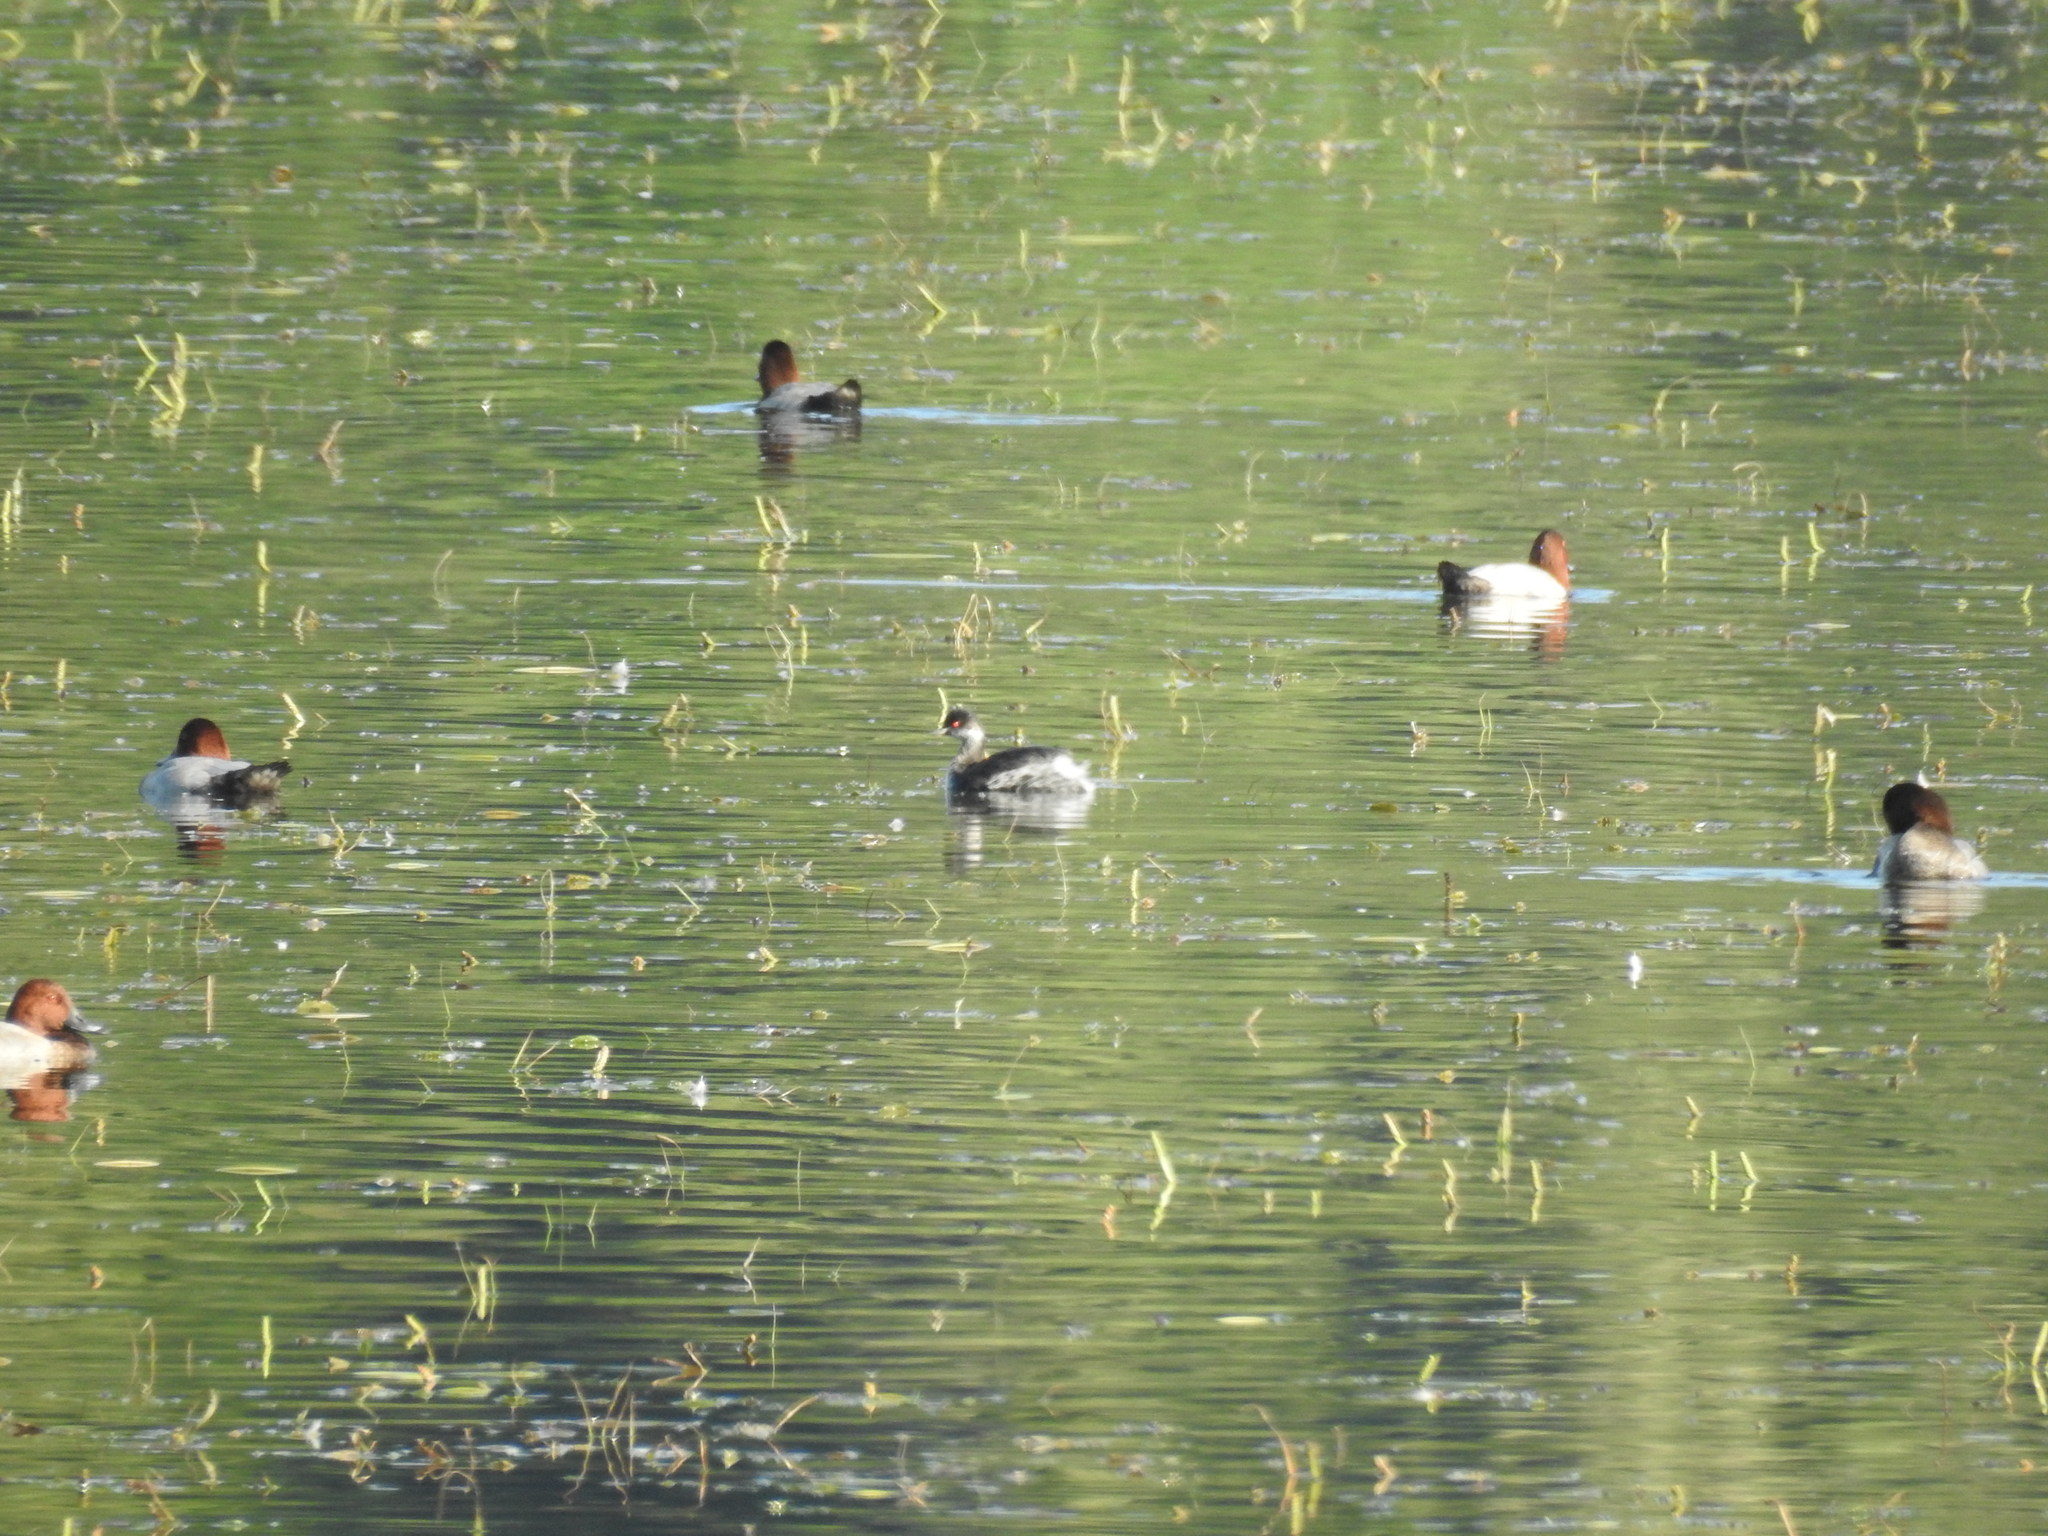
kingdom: Animalia
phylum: Chordata
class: Aves
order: Podicipediformes
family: Podicipedidae
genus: Podiceps
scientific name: Podiceps nigricollis
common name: Black-necked grebe
